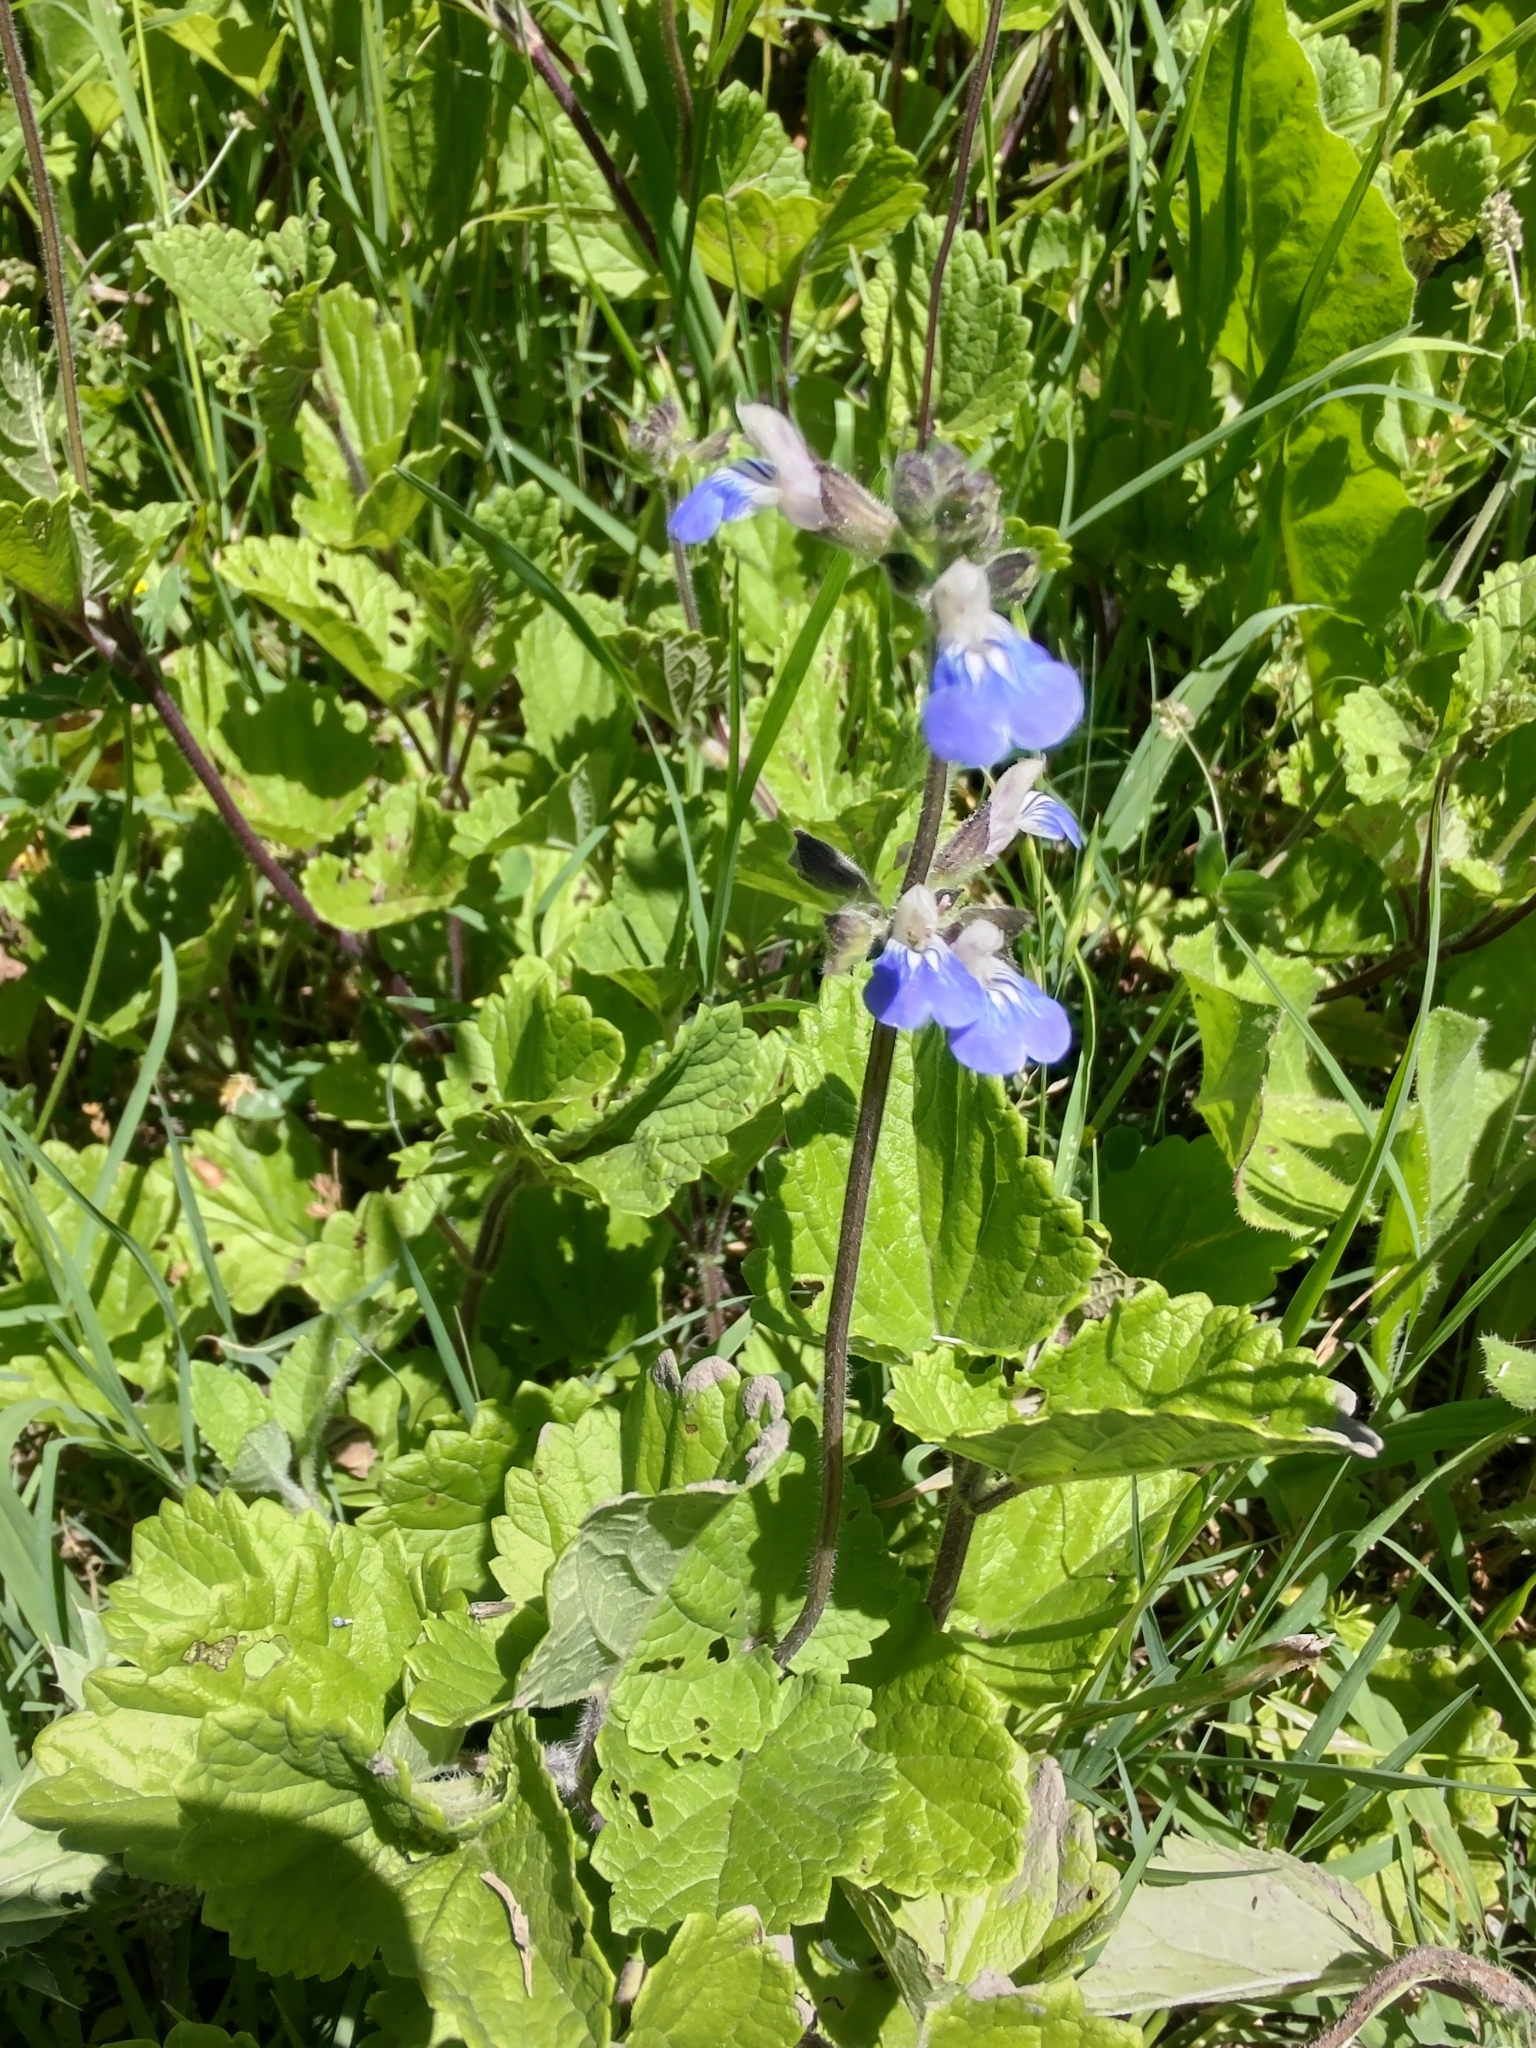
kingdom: Plantae
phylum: Tracheophyta
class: Magnoliopsida
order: Lamiales
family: Lamiaceae
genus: Salvia
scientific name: Salvia procurrens
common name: Blue creeper
